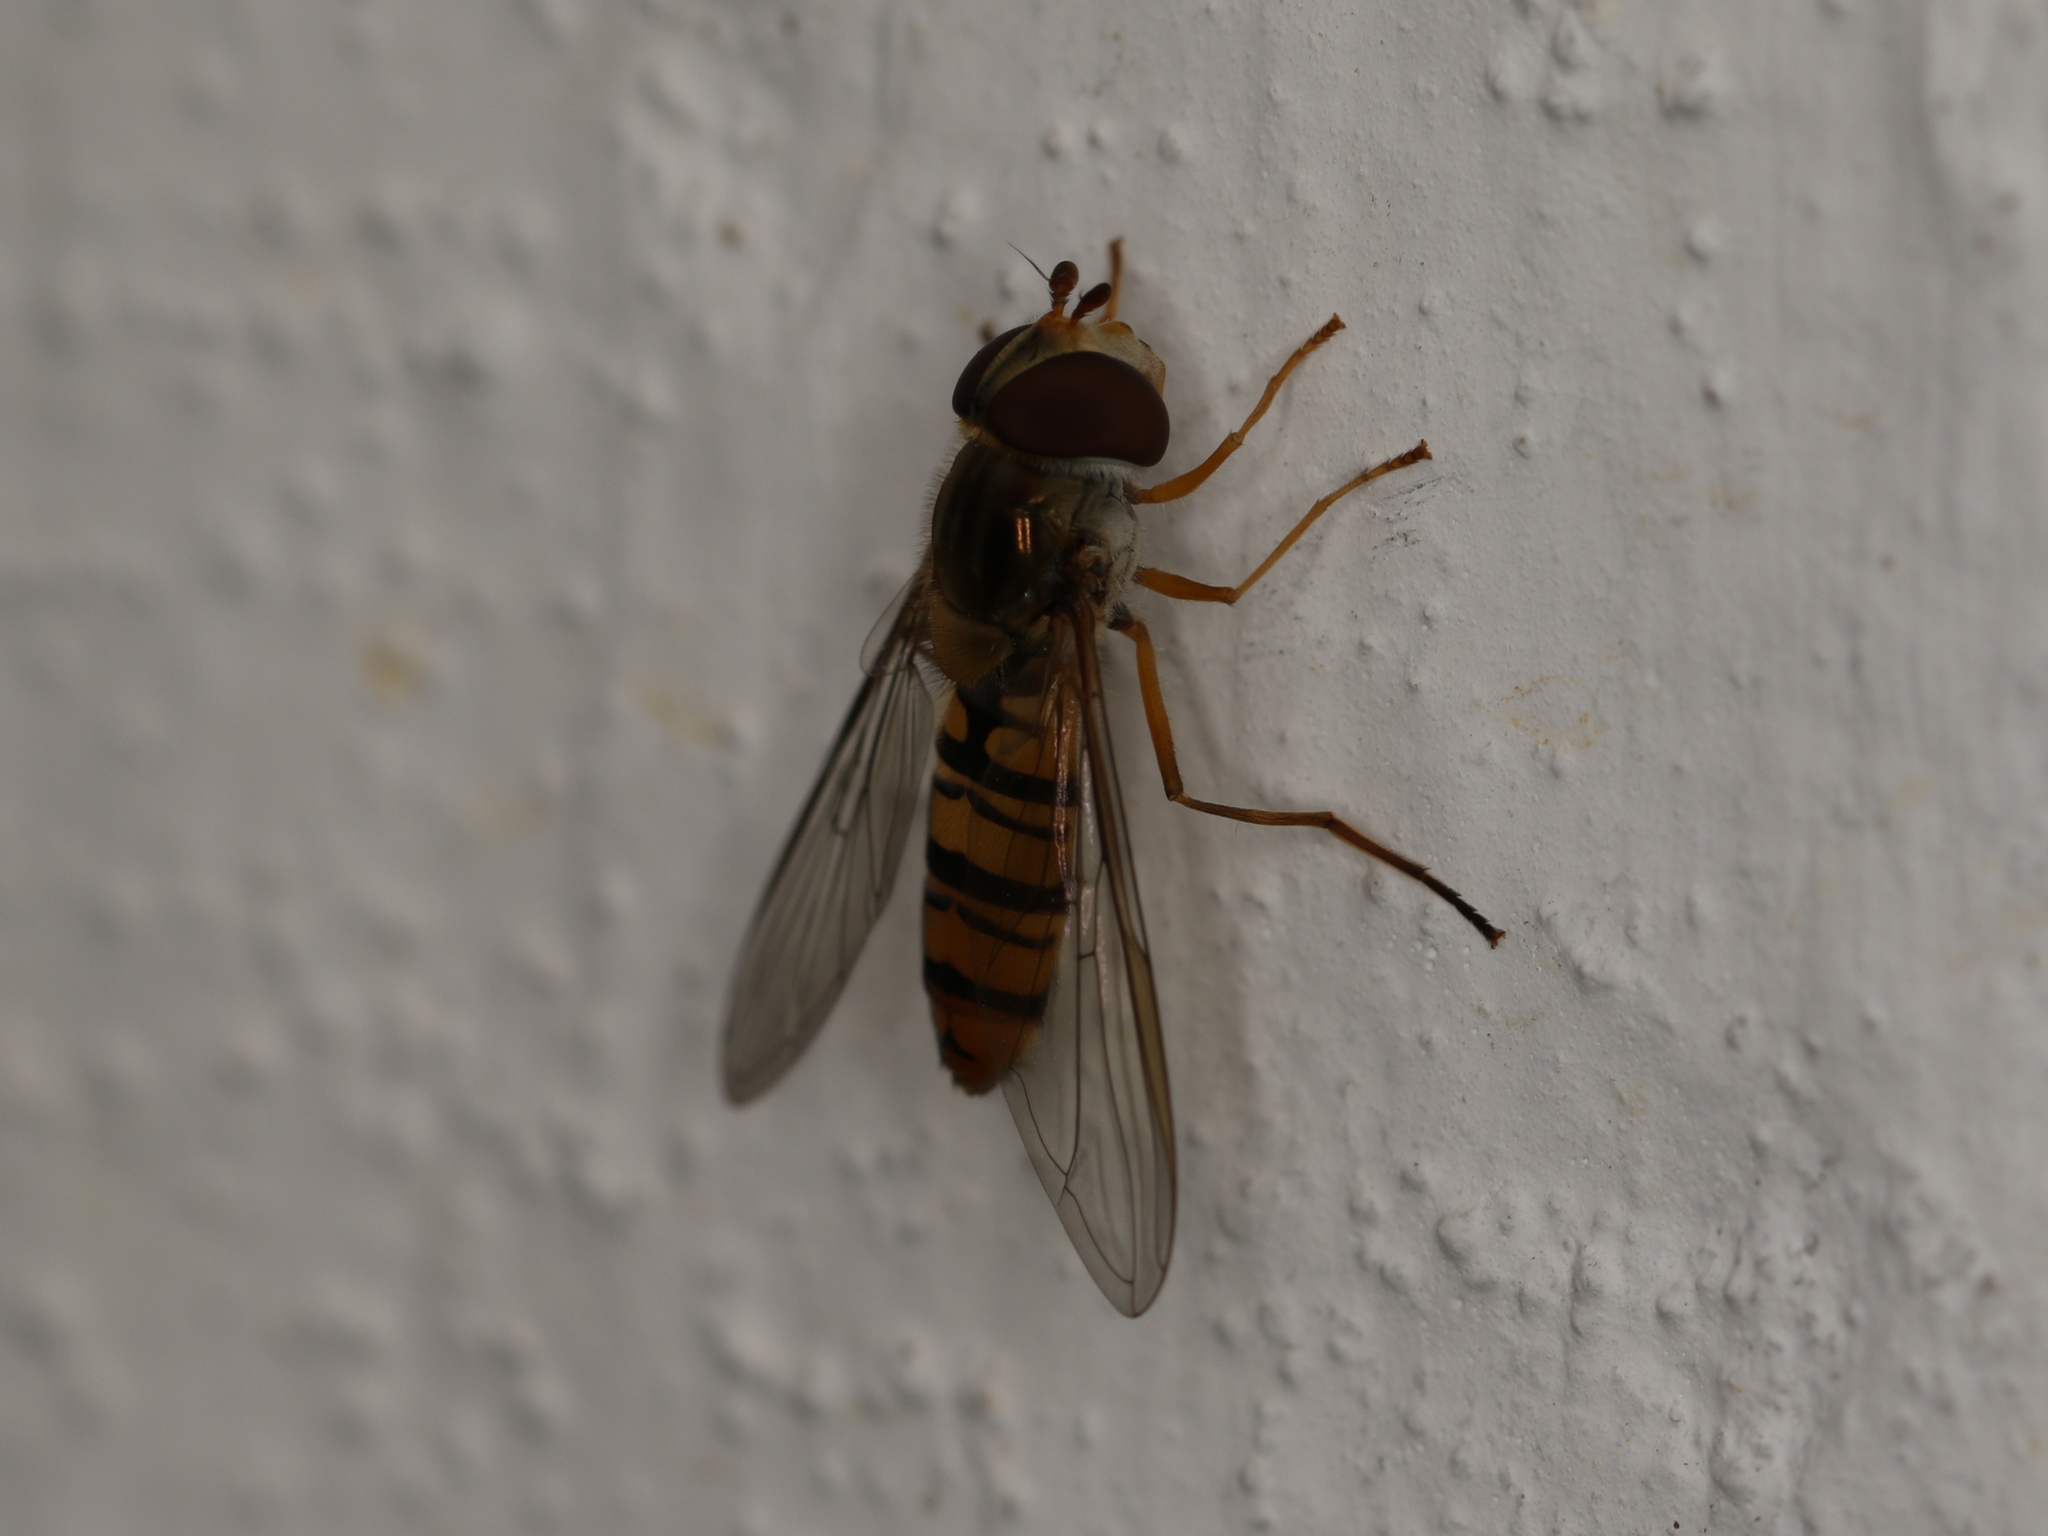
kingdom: Animalia
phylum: Arthropoda
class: Insecta
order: Diptera
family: Syrphidae
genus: Episyrphus
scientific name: Episyrphus balteatus
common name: Marmalade hoverfly
